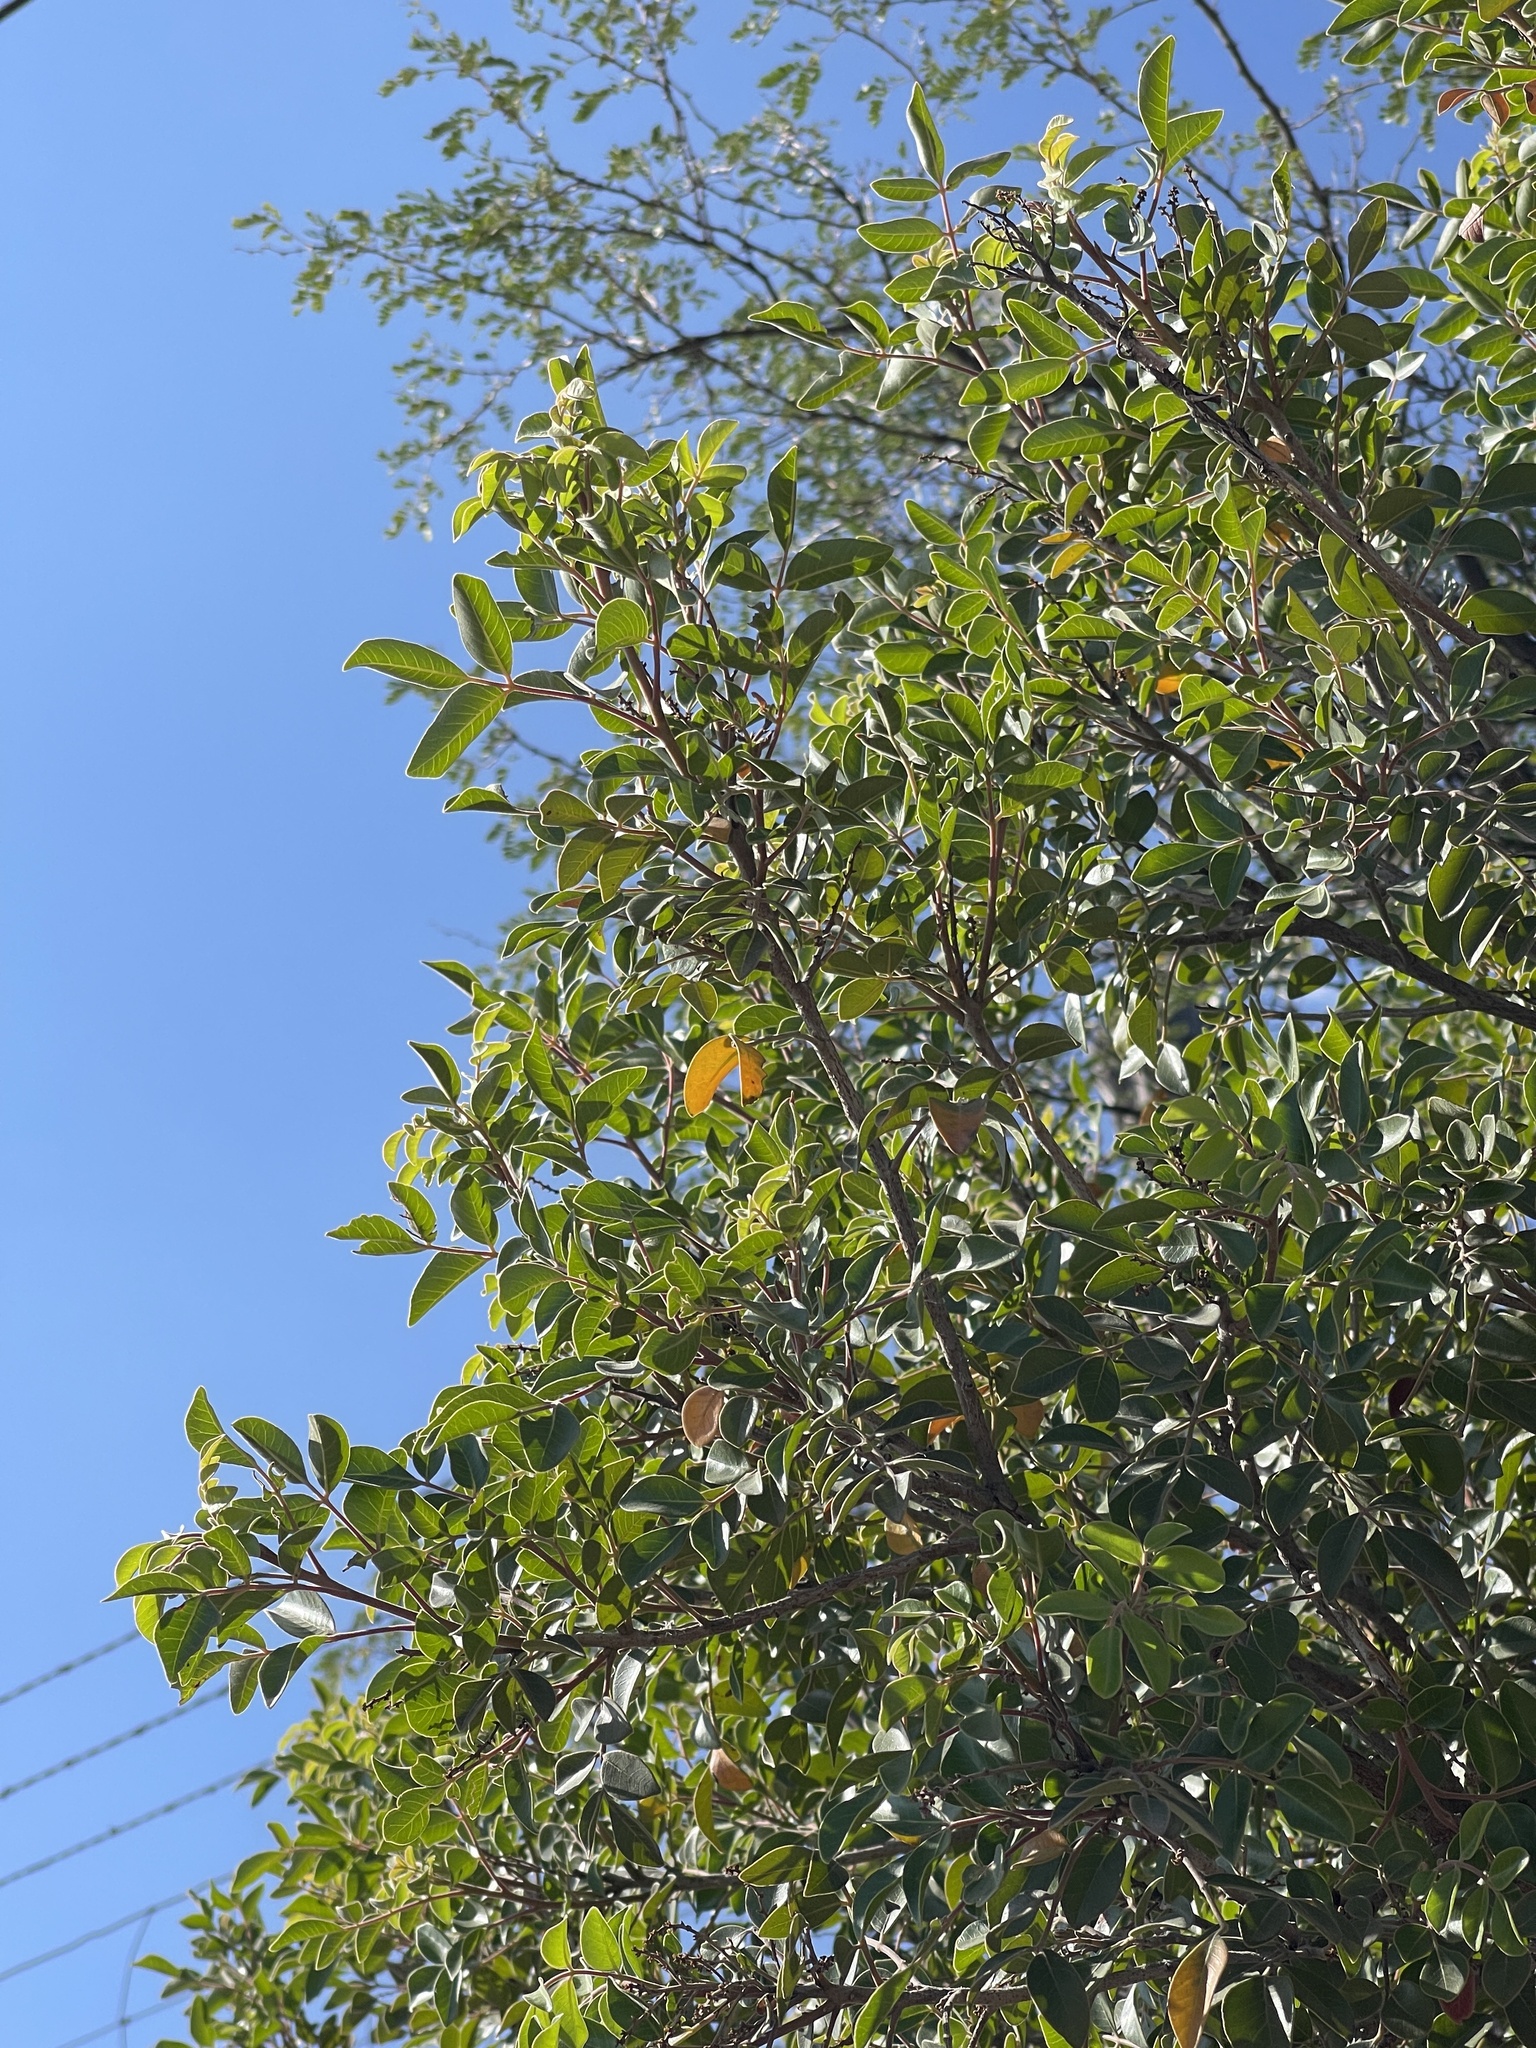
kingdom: Plantae
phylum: Tracheophyta
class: Magnoliopsida
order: Sapindales
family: Anacardiaceae
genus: Rhus
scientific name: Rhus virens
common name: Evergreen sumac
